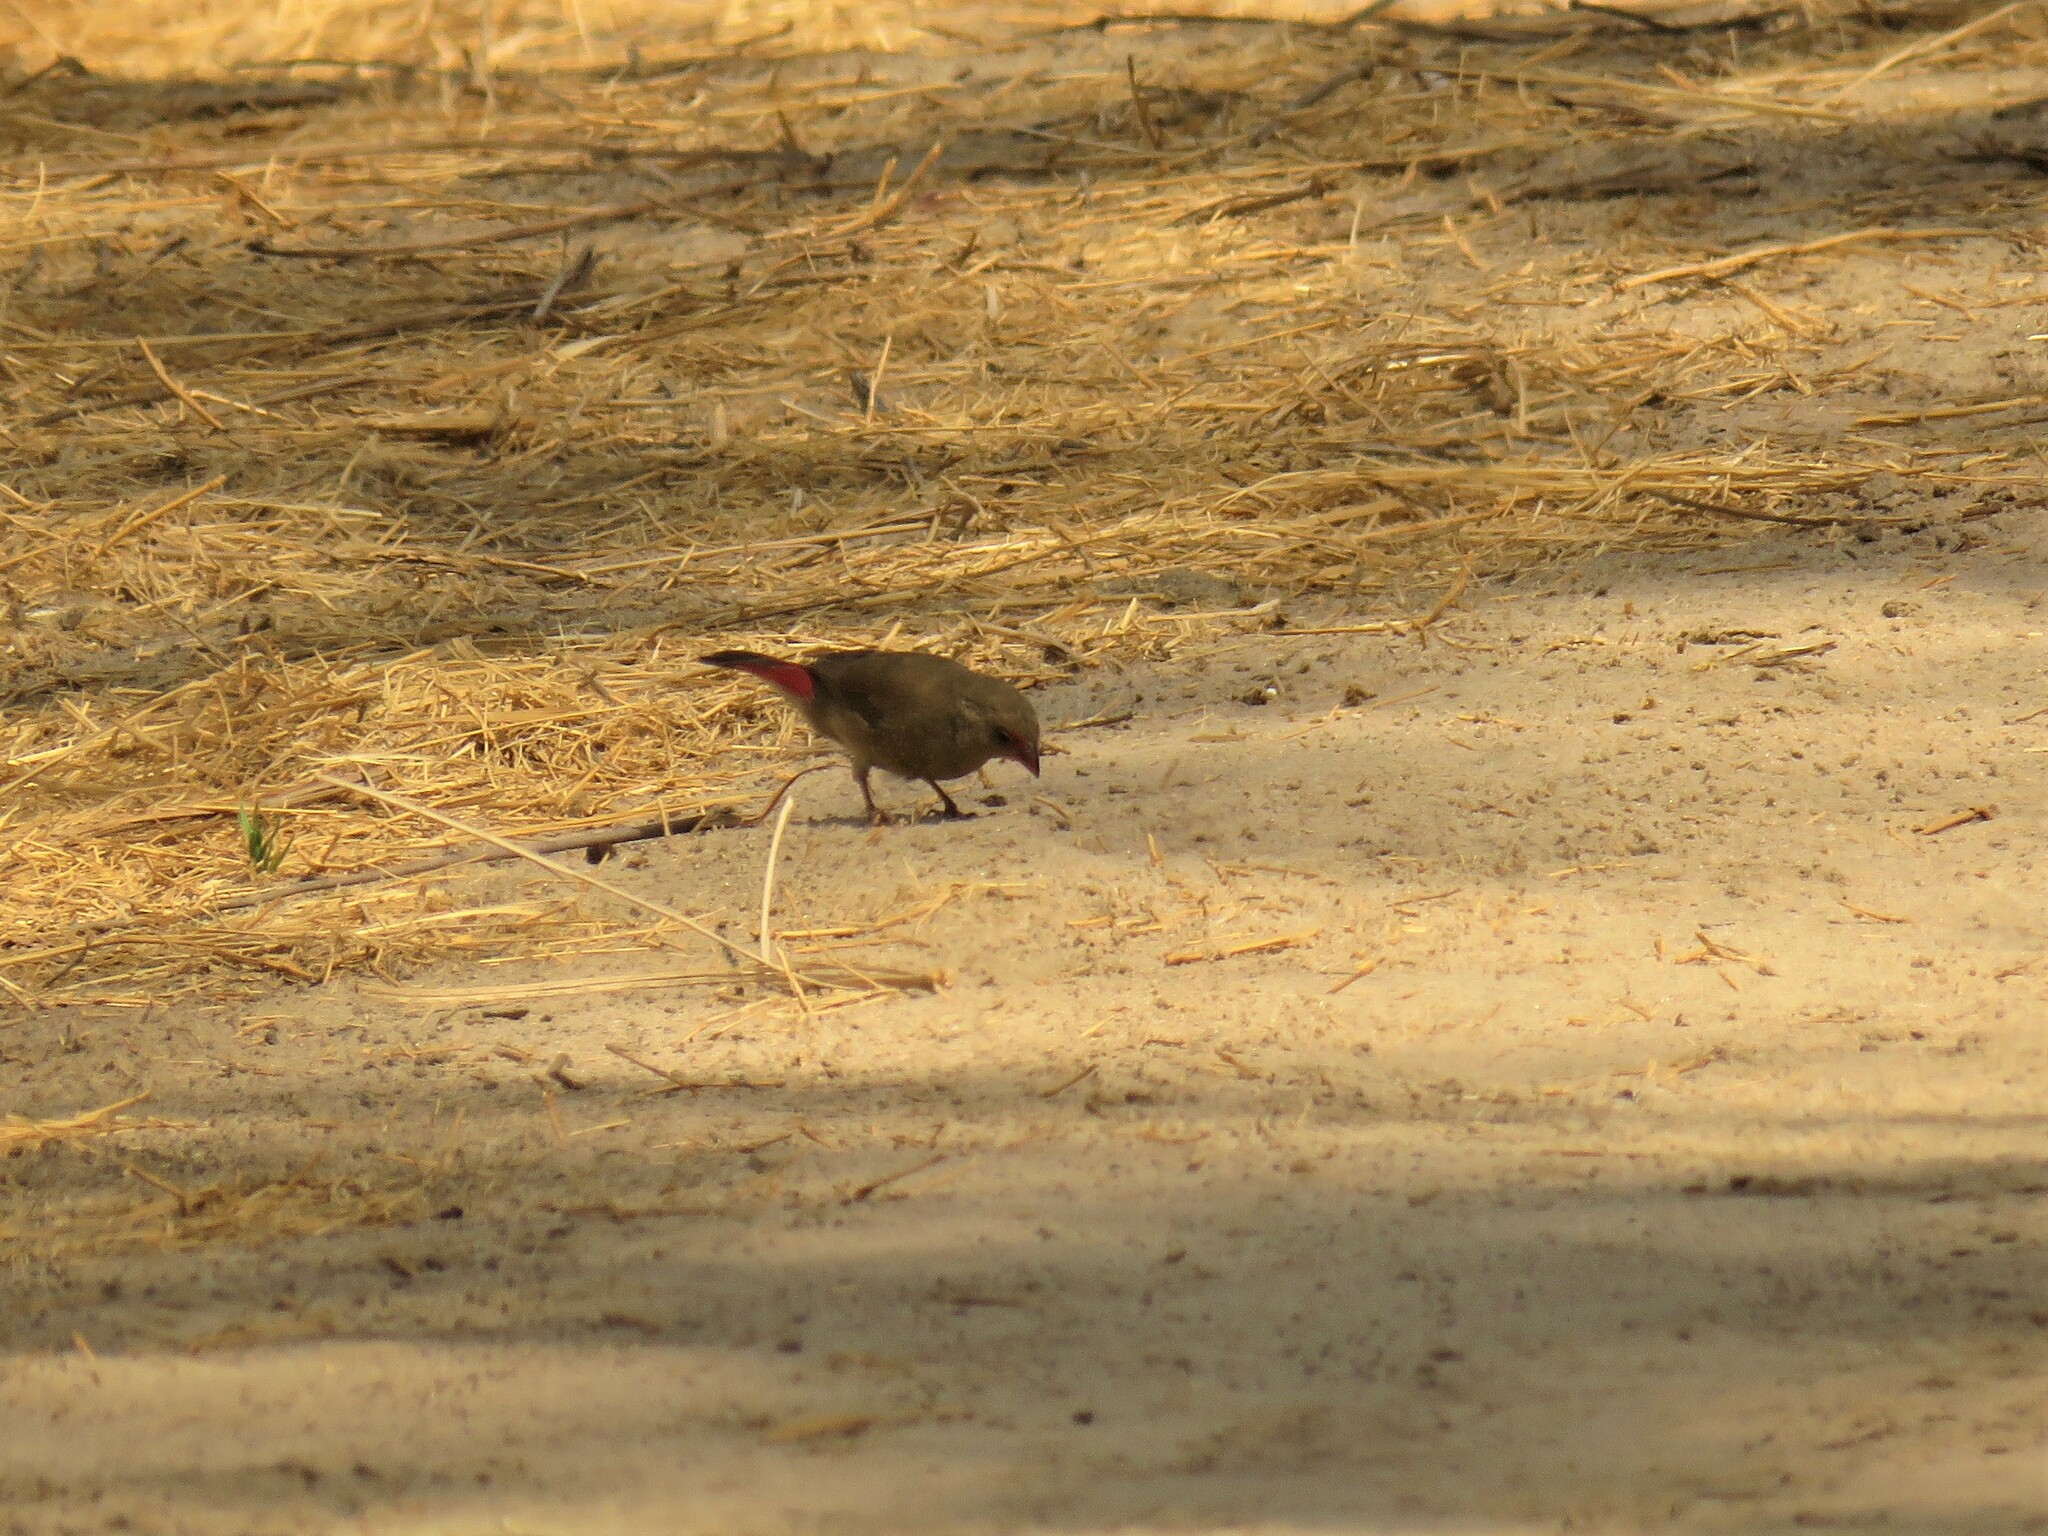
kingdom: Animalia
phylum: Chordata
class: Aves
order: Passeriformes
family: Estrildidae
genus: Lagonosticta
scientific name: Lagonosticta senegala
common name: Red-billed firefinch
